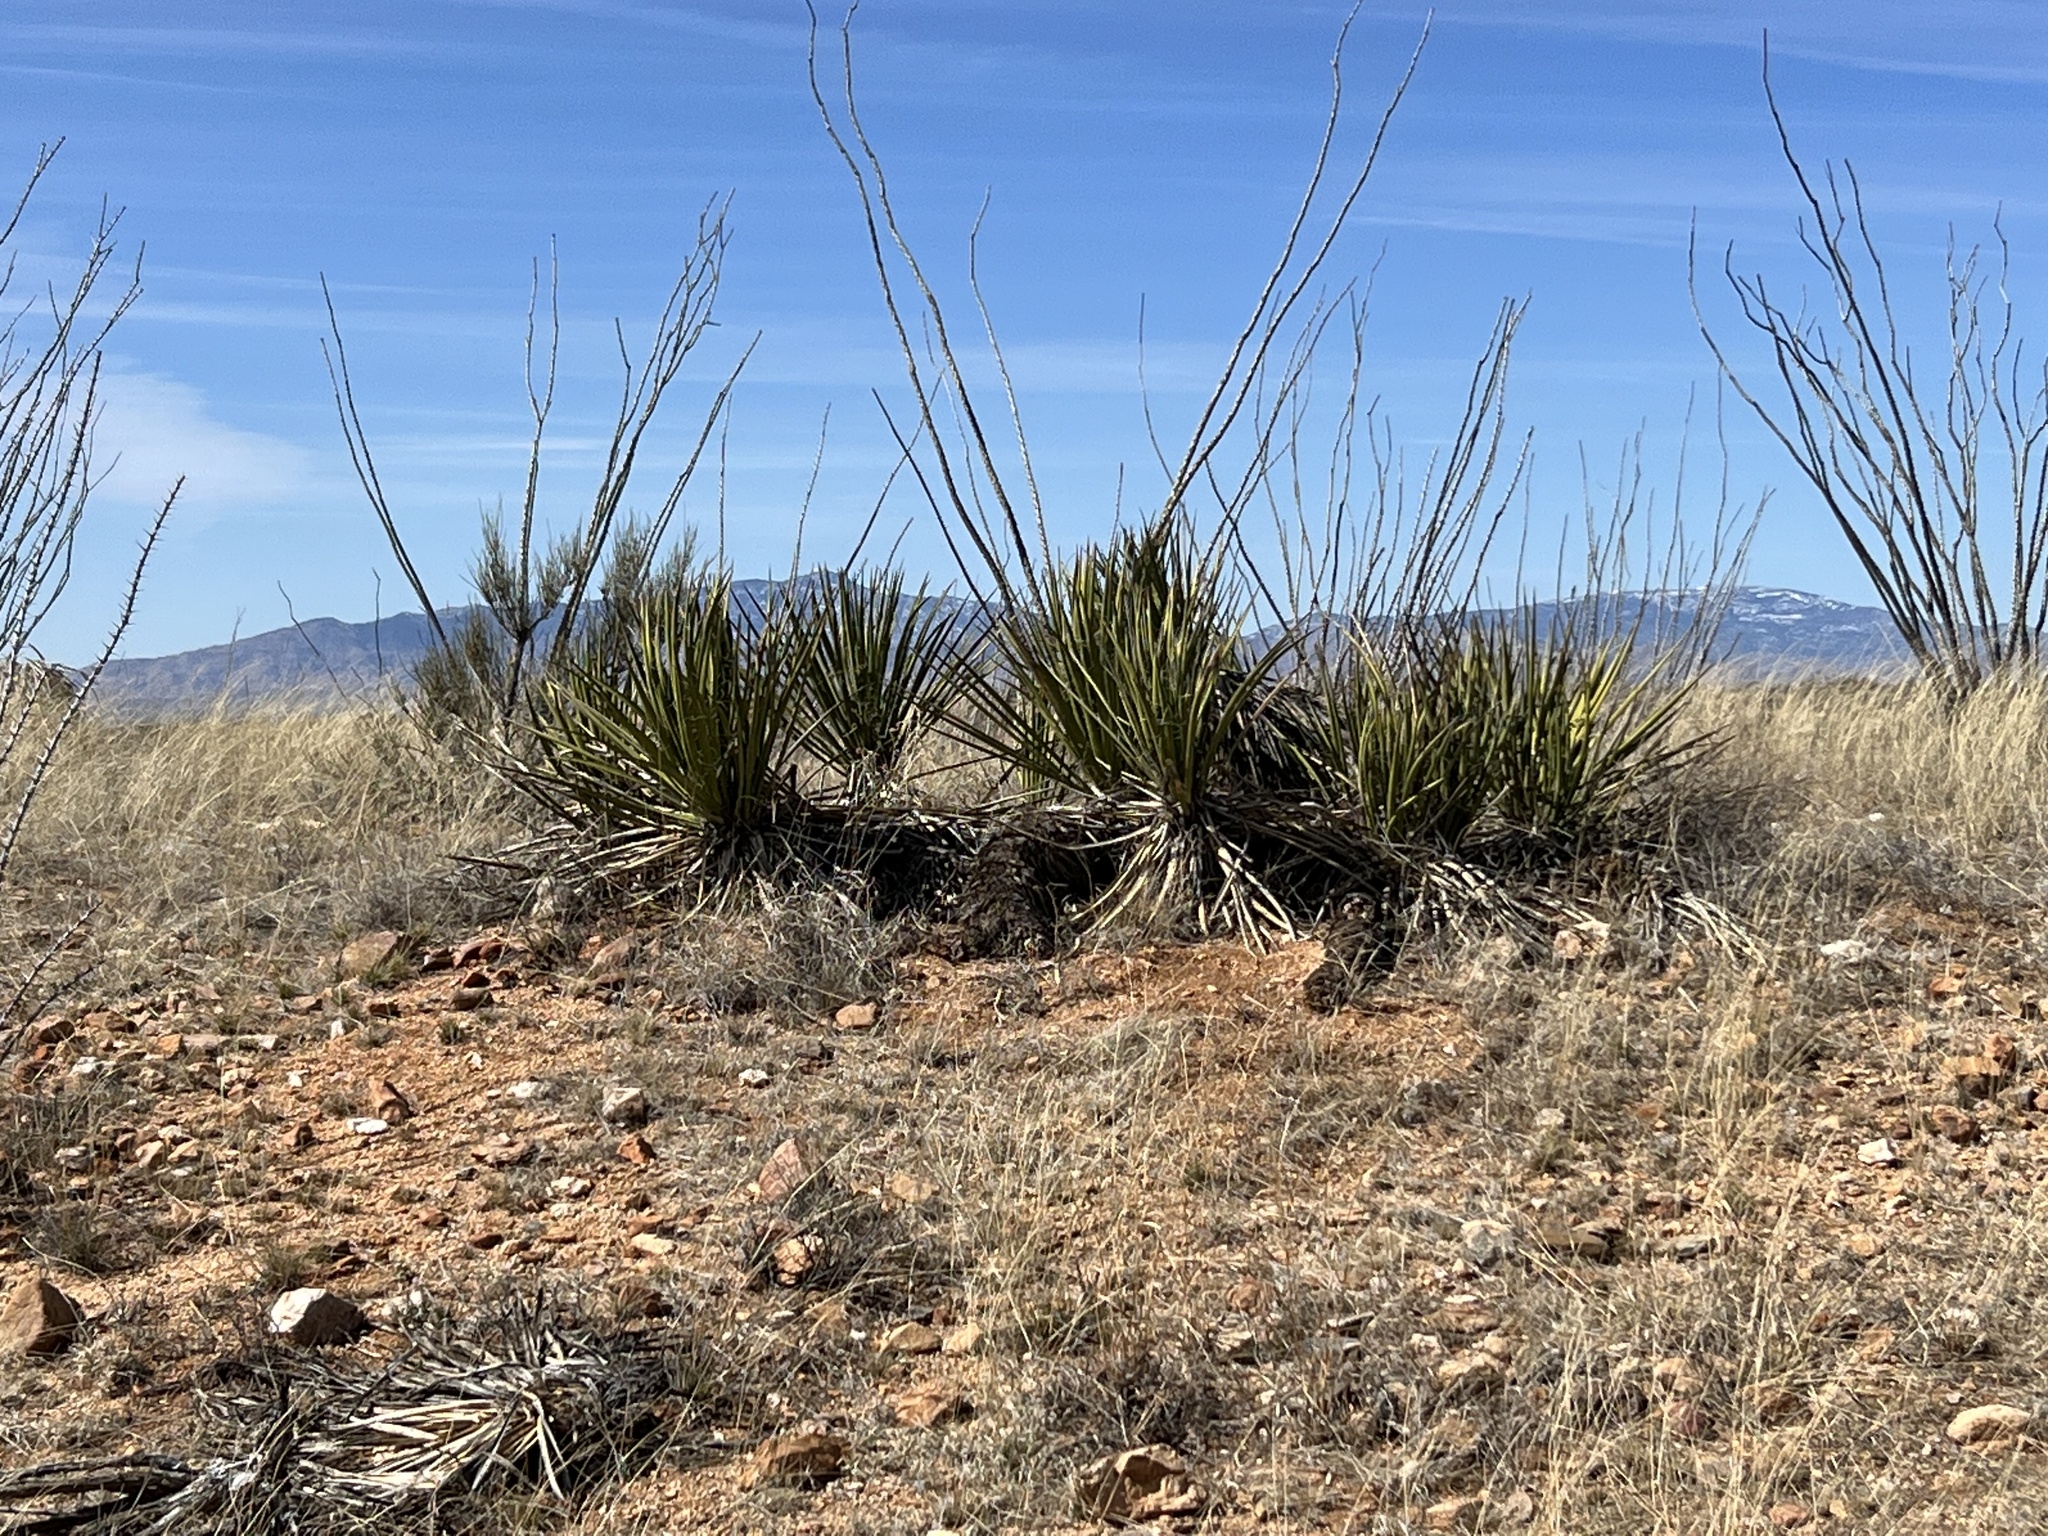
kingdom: Plantae
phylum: Tracheophyta
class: Liliopsida
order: Asparagales
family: Asparagaceae
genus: Yucca
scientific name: Yucca baccata
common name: Banana yucca
